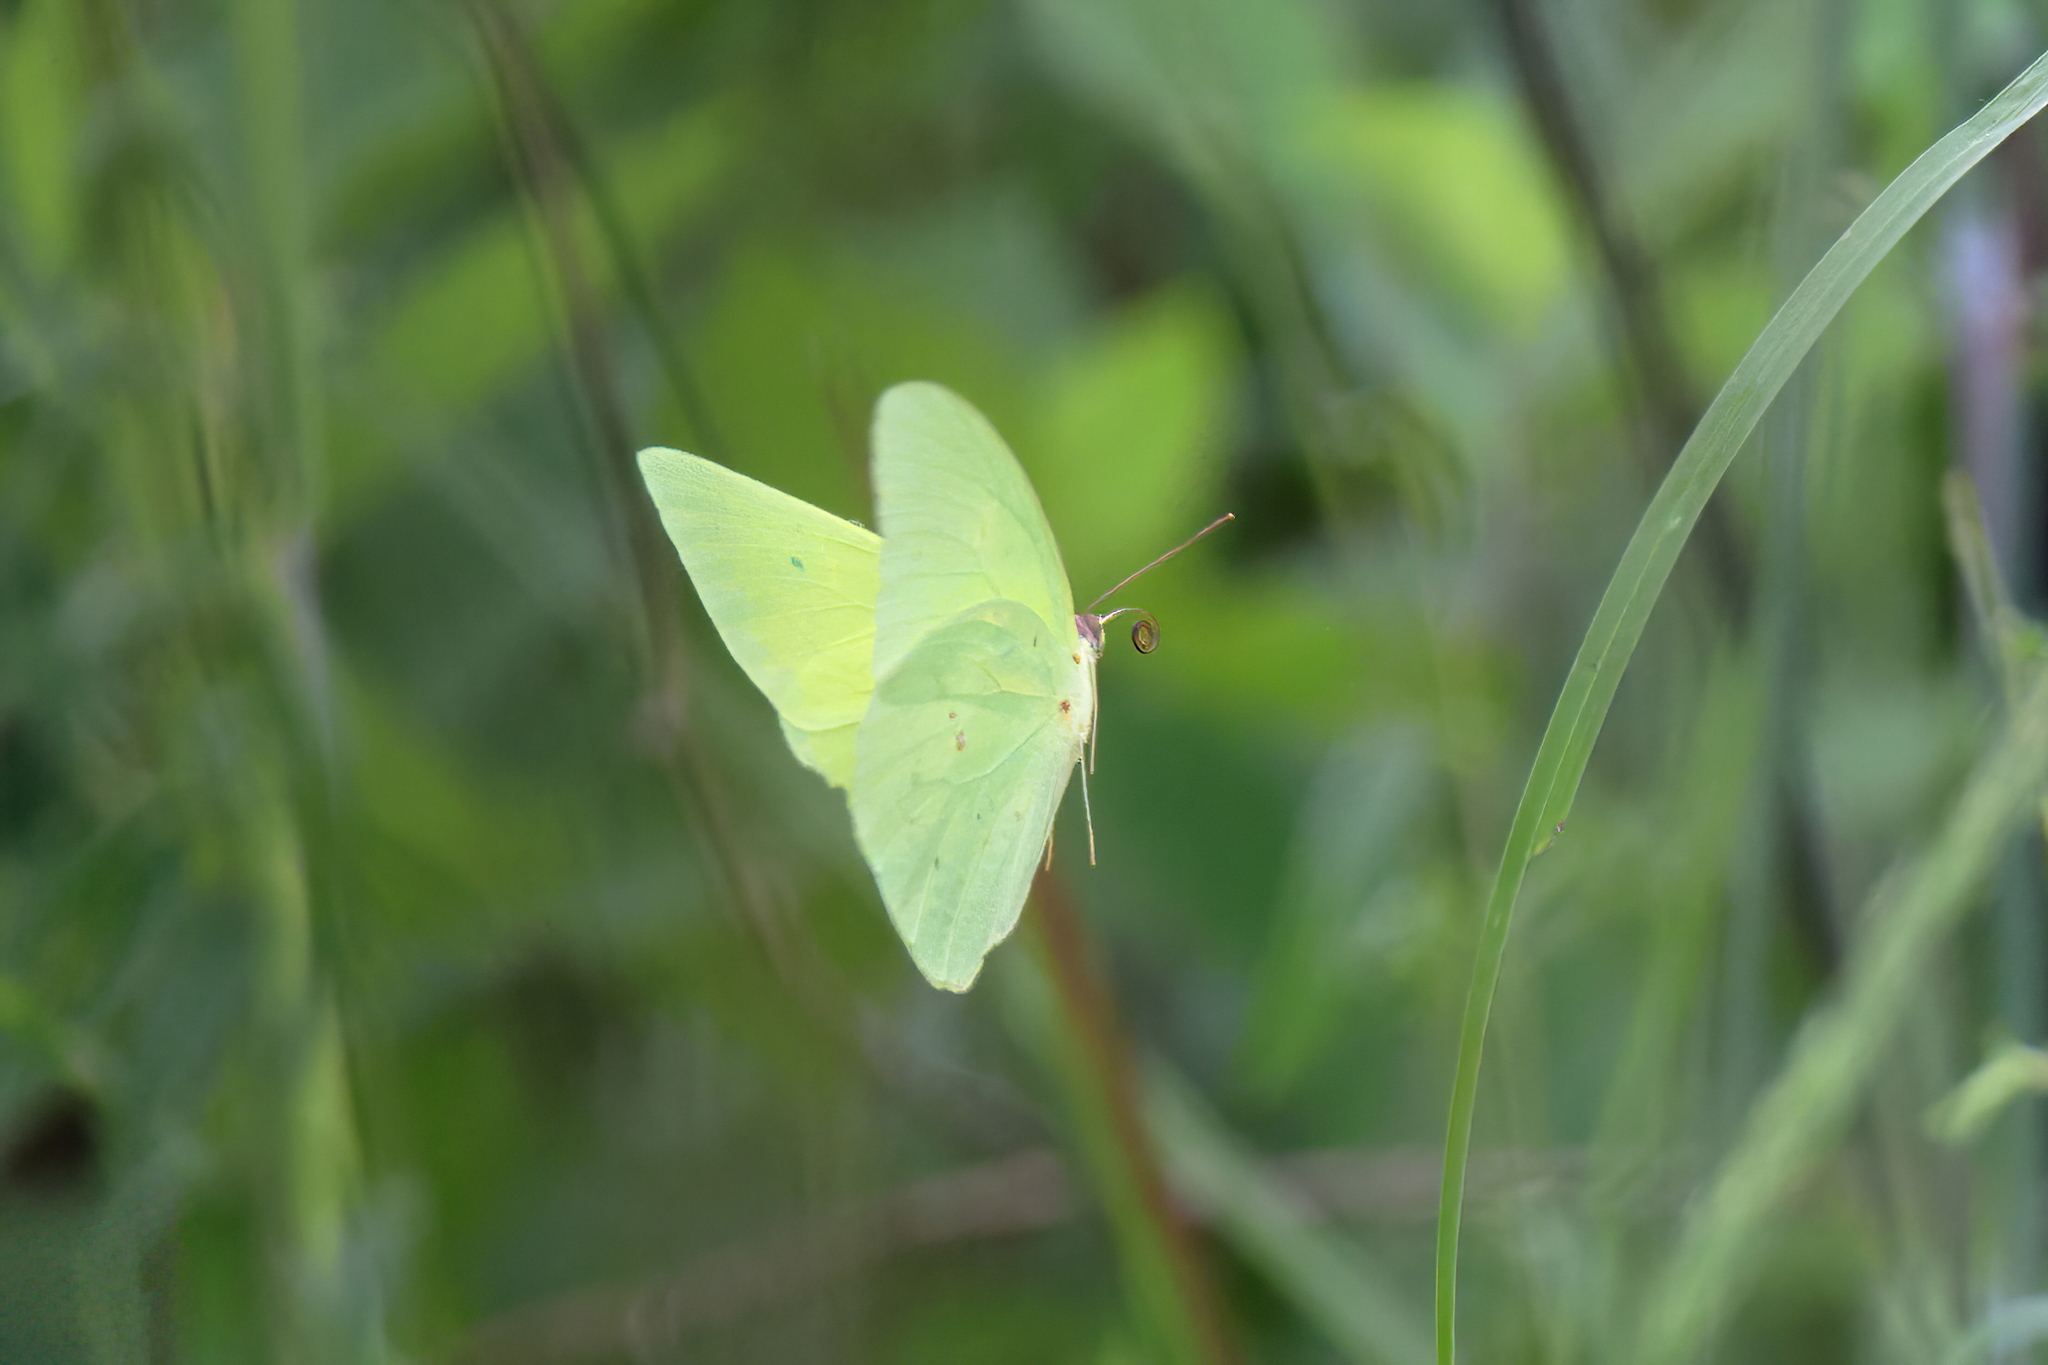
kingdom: Animalia
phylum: Arthropoda
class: Insecta
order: Lepidoptera
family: Pieridae
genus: Phoebis
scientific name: Phoebis sennae
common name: Cloudless sulphur
